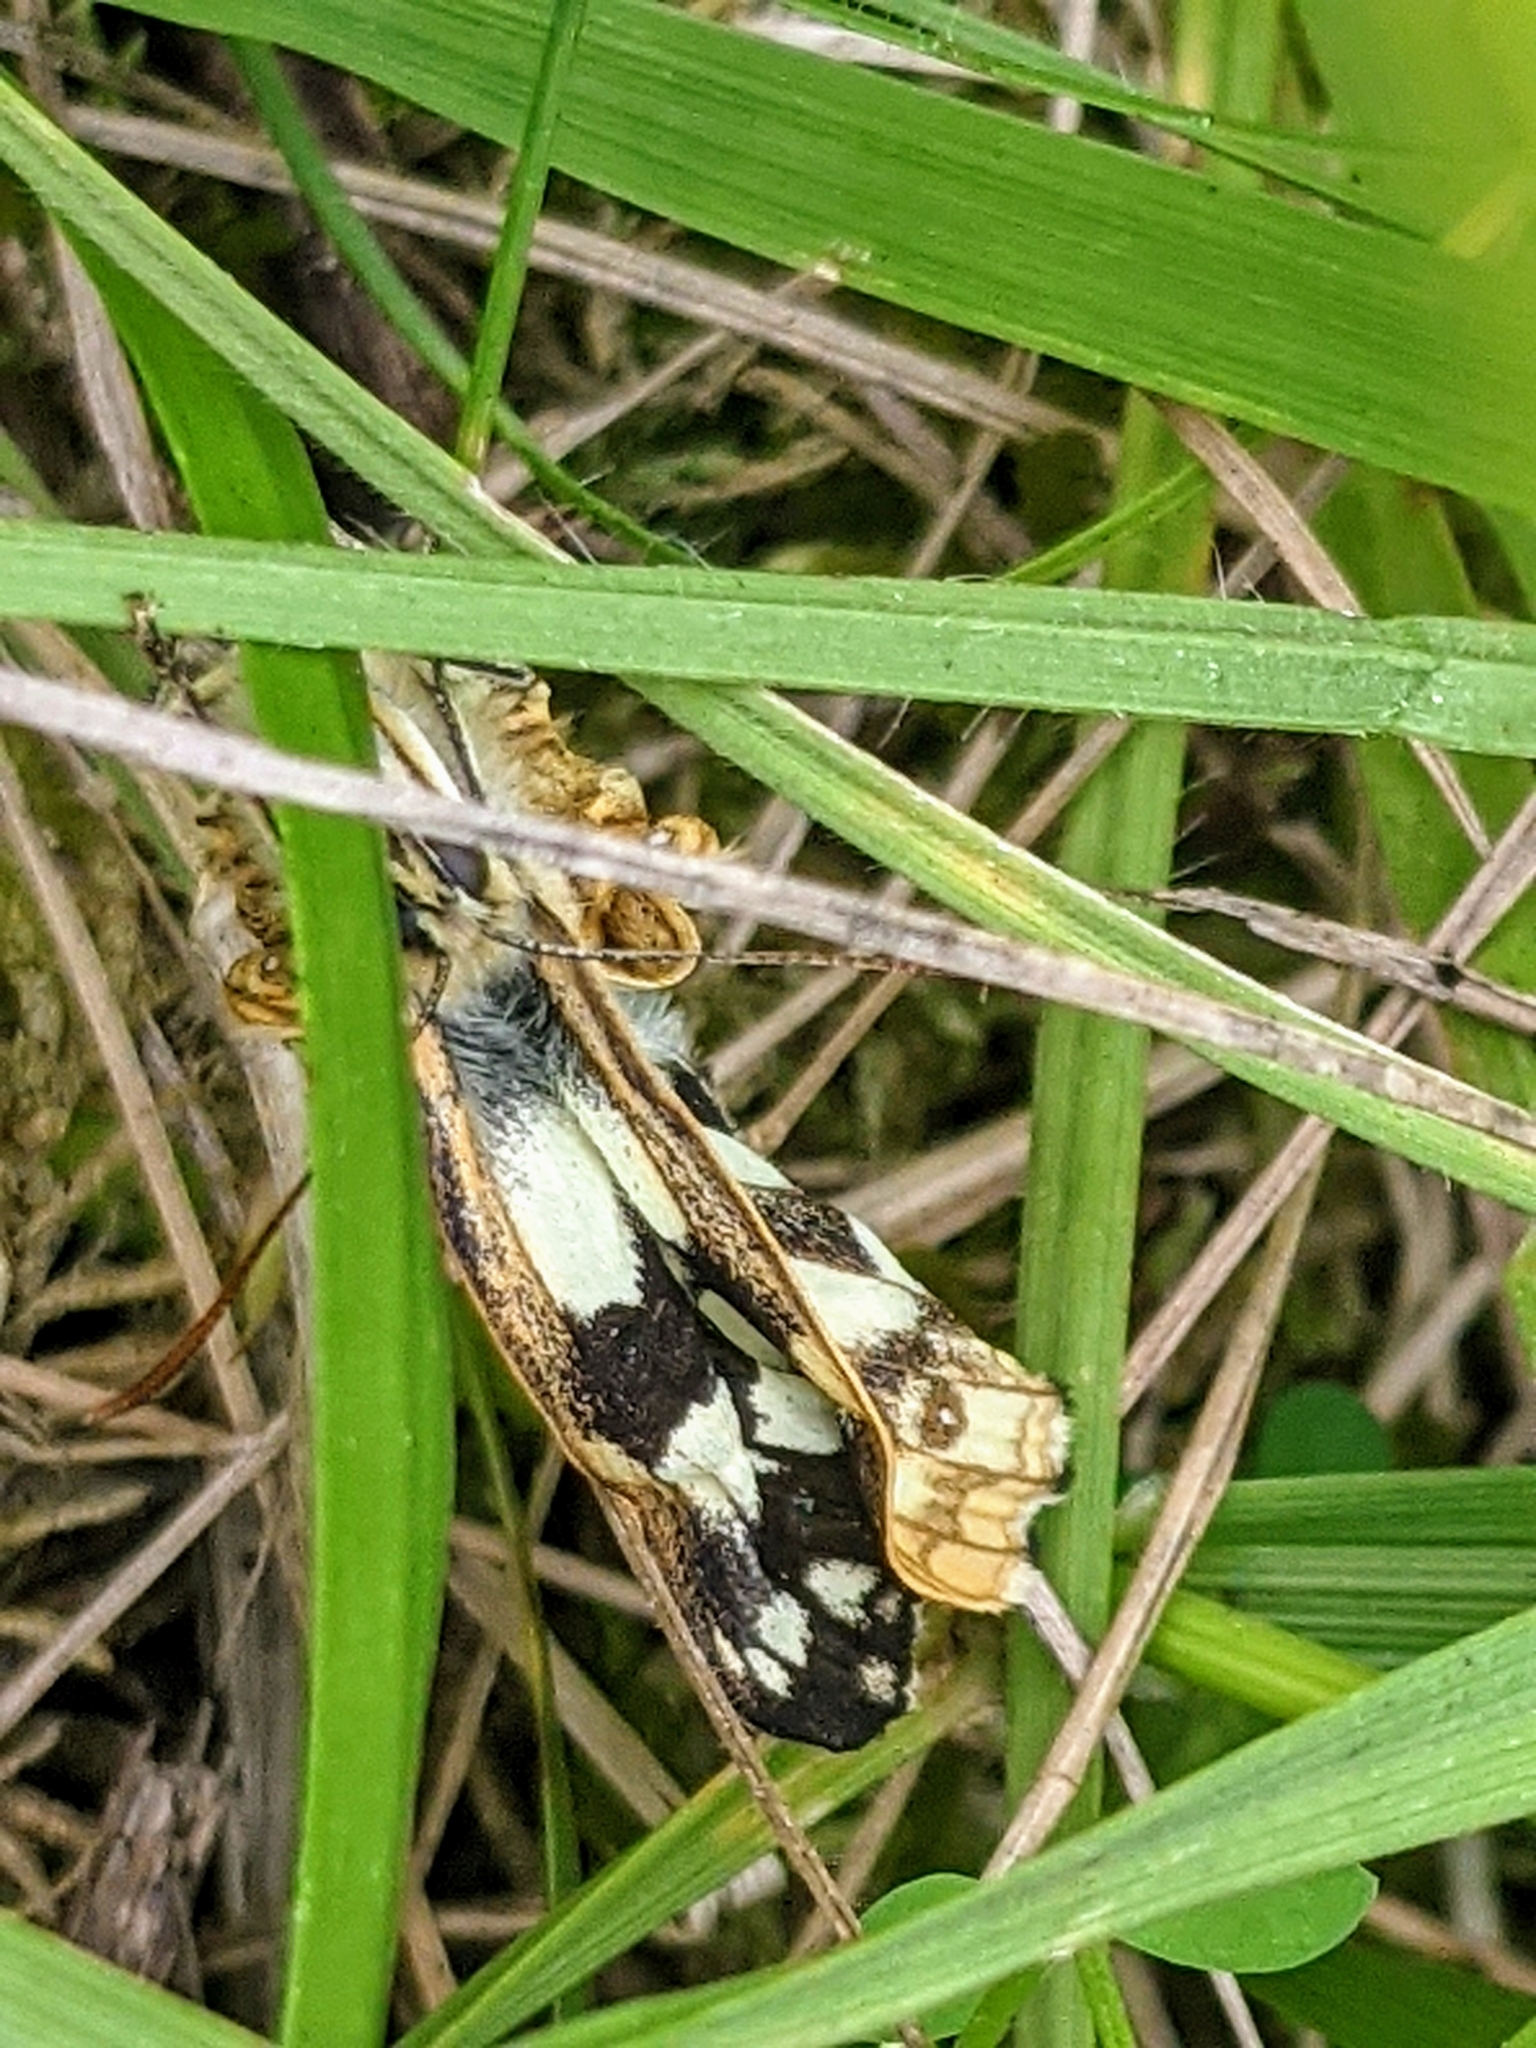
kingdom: Animalia
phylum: Arthropoda
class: Insecta
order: Lepidoptera
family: Nymphalidae
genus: Melanargia
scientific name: Melanargia galathea
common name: Marbled white
